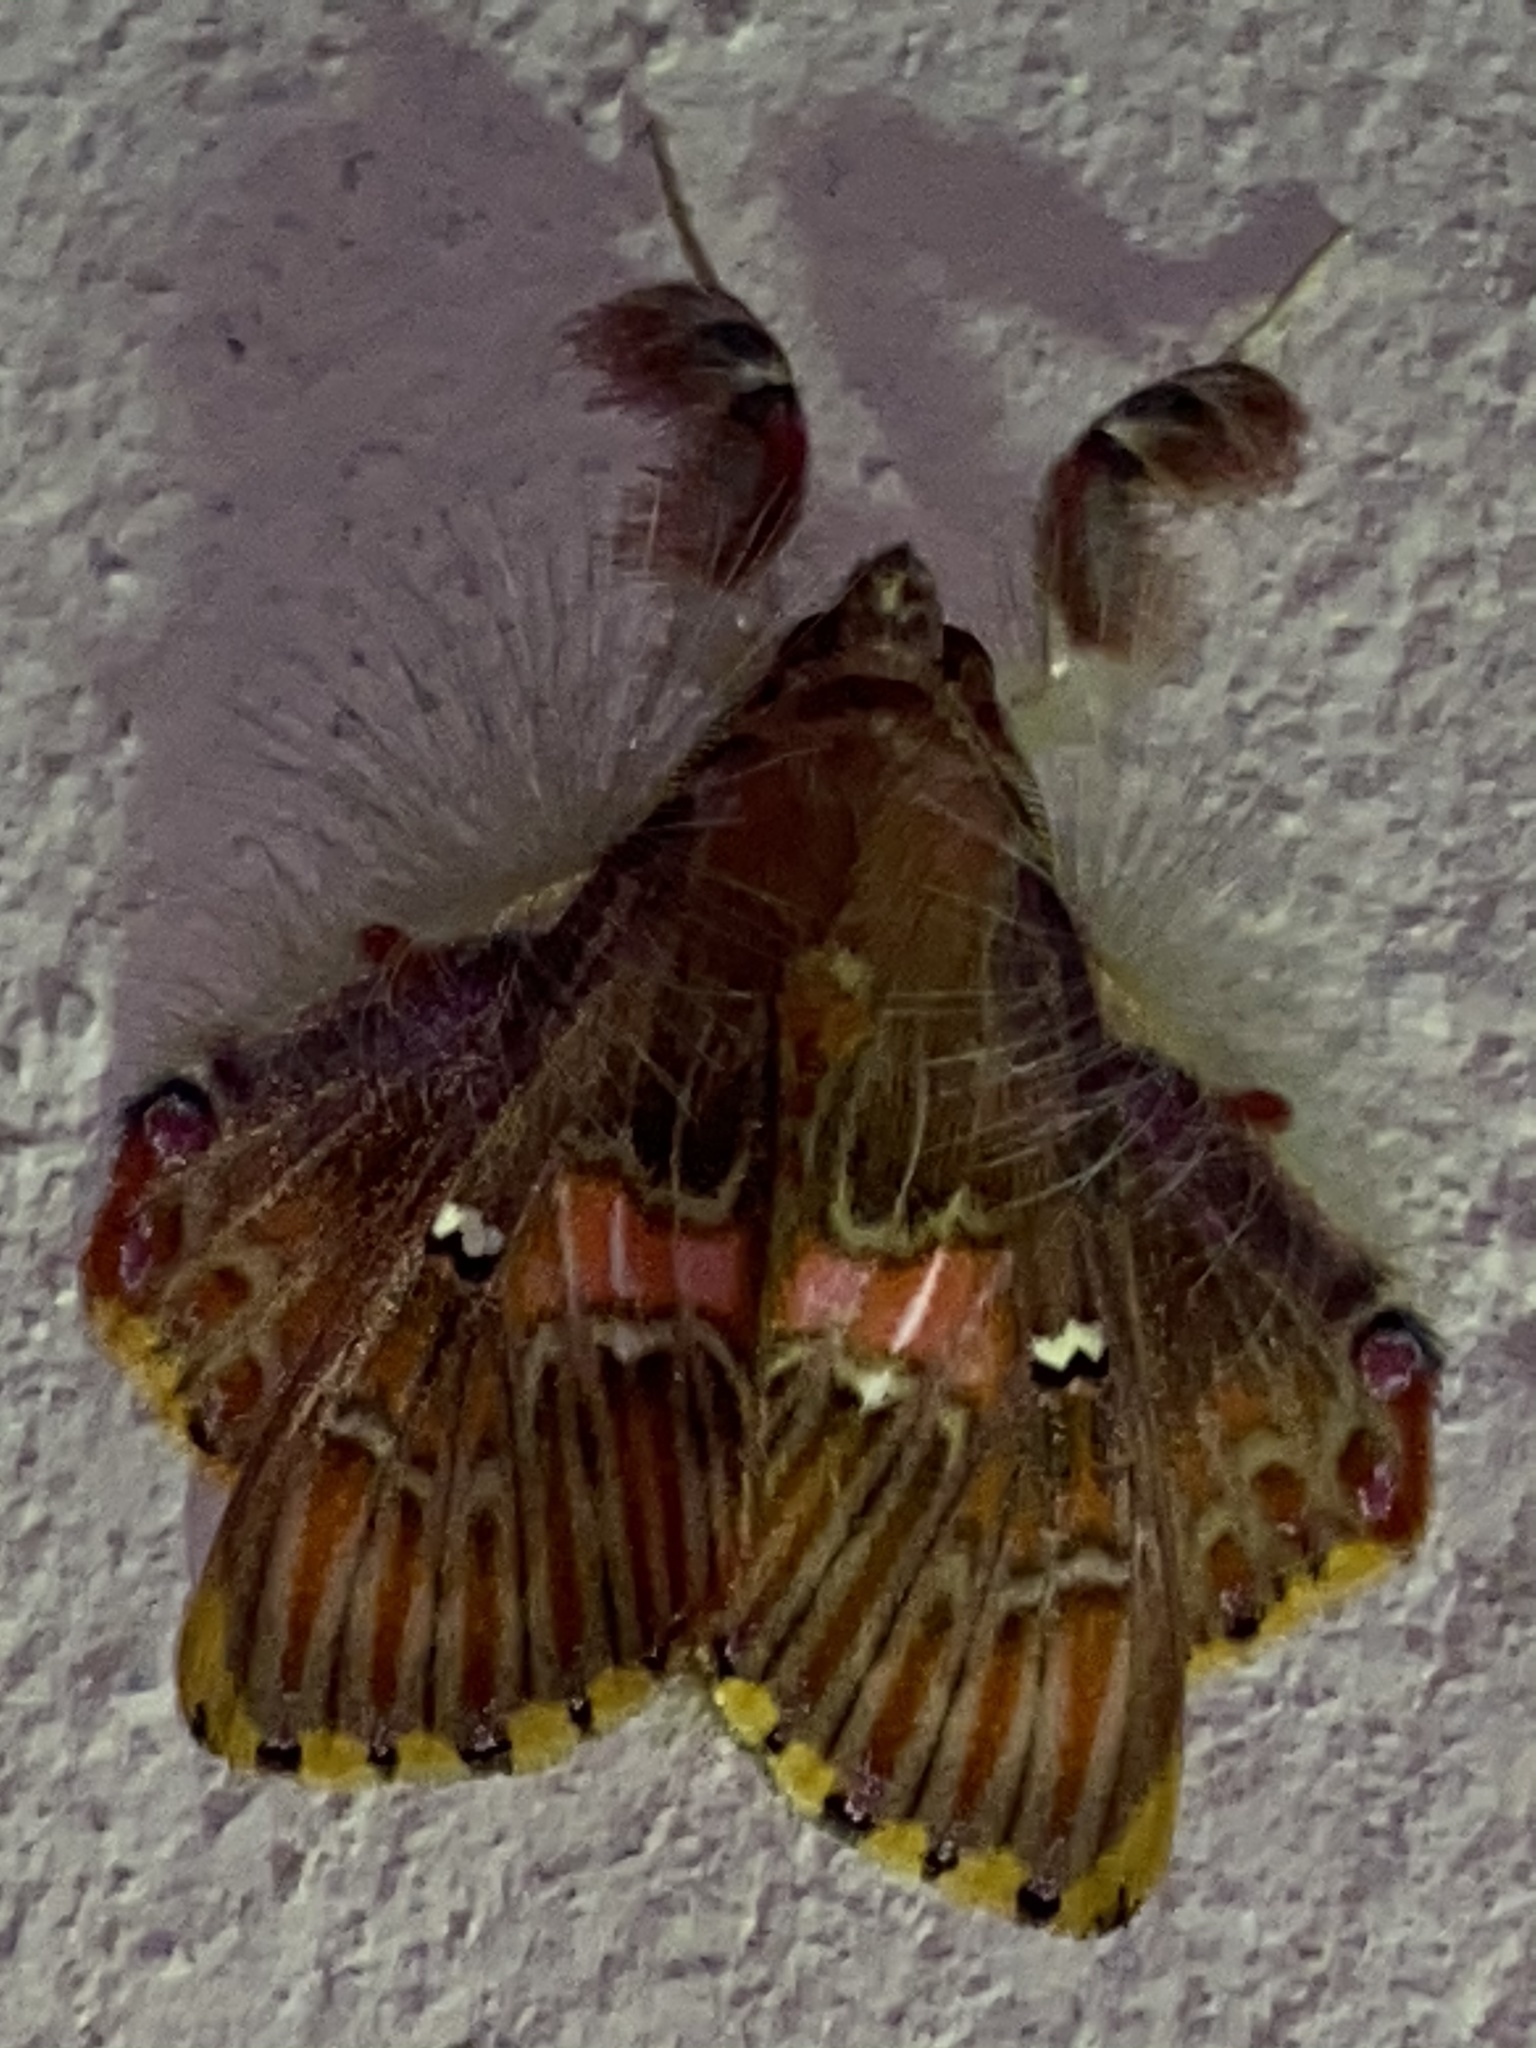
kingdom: Animalia
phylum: Arthropoda
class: Insecta
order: Lepidoptera
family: Erebidae
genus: Sosxetra
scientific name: Sosxetra grata
